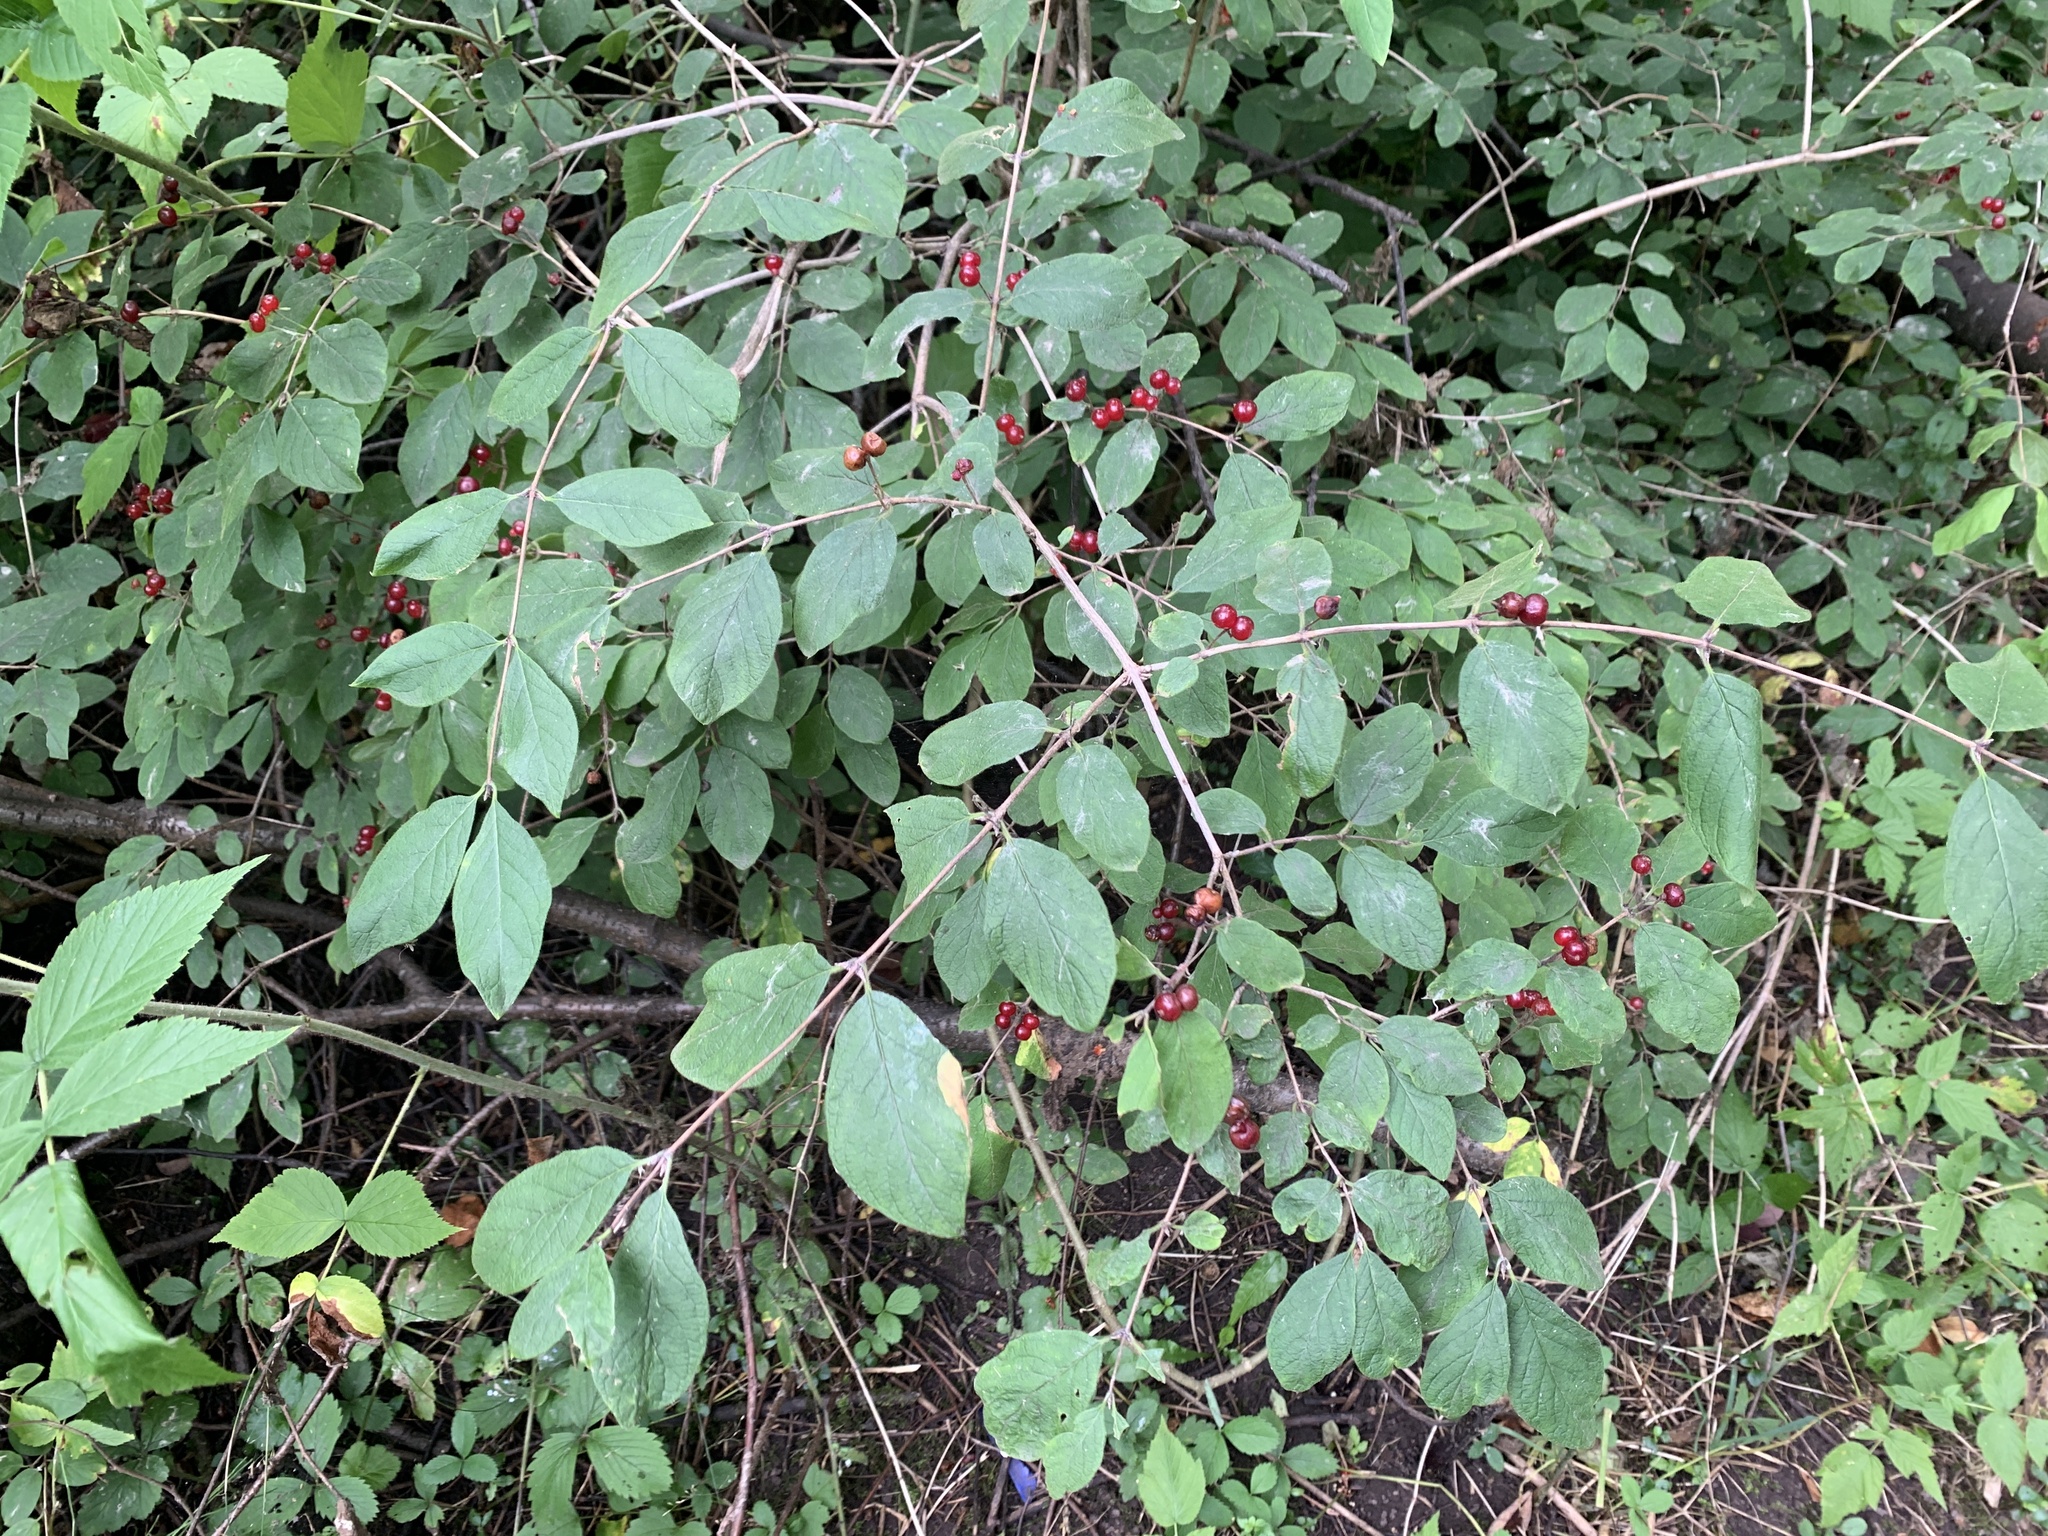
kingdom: Plantae
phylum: Tracheophyta
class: Magnoliopsida
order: Dipsacales
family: Caprifoliaceae
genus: Lonicera
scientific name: Lonicera xylosteum
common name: Fly honeysuckle
